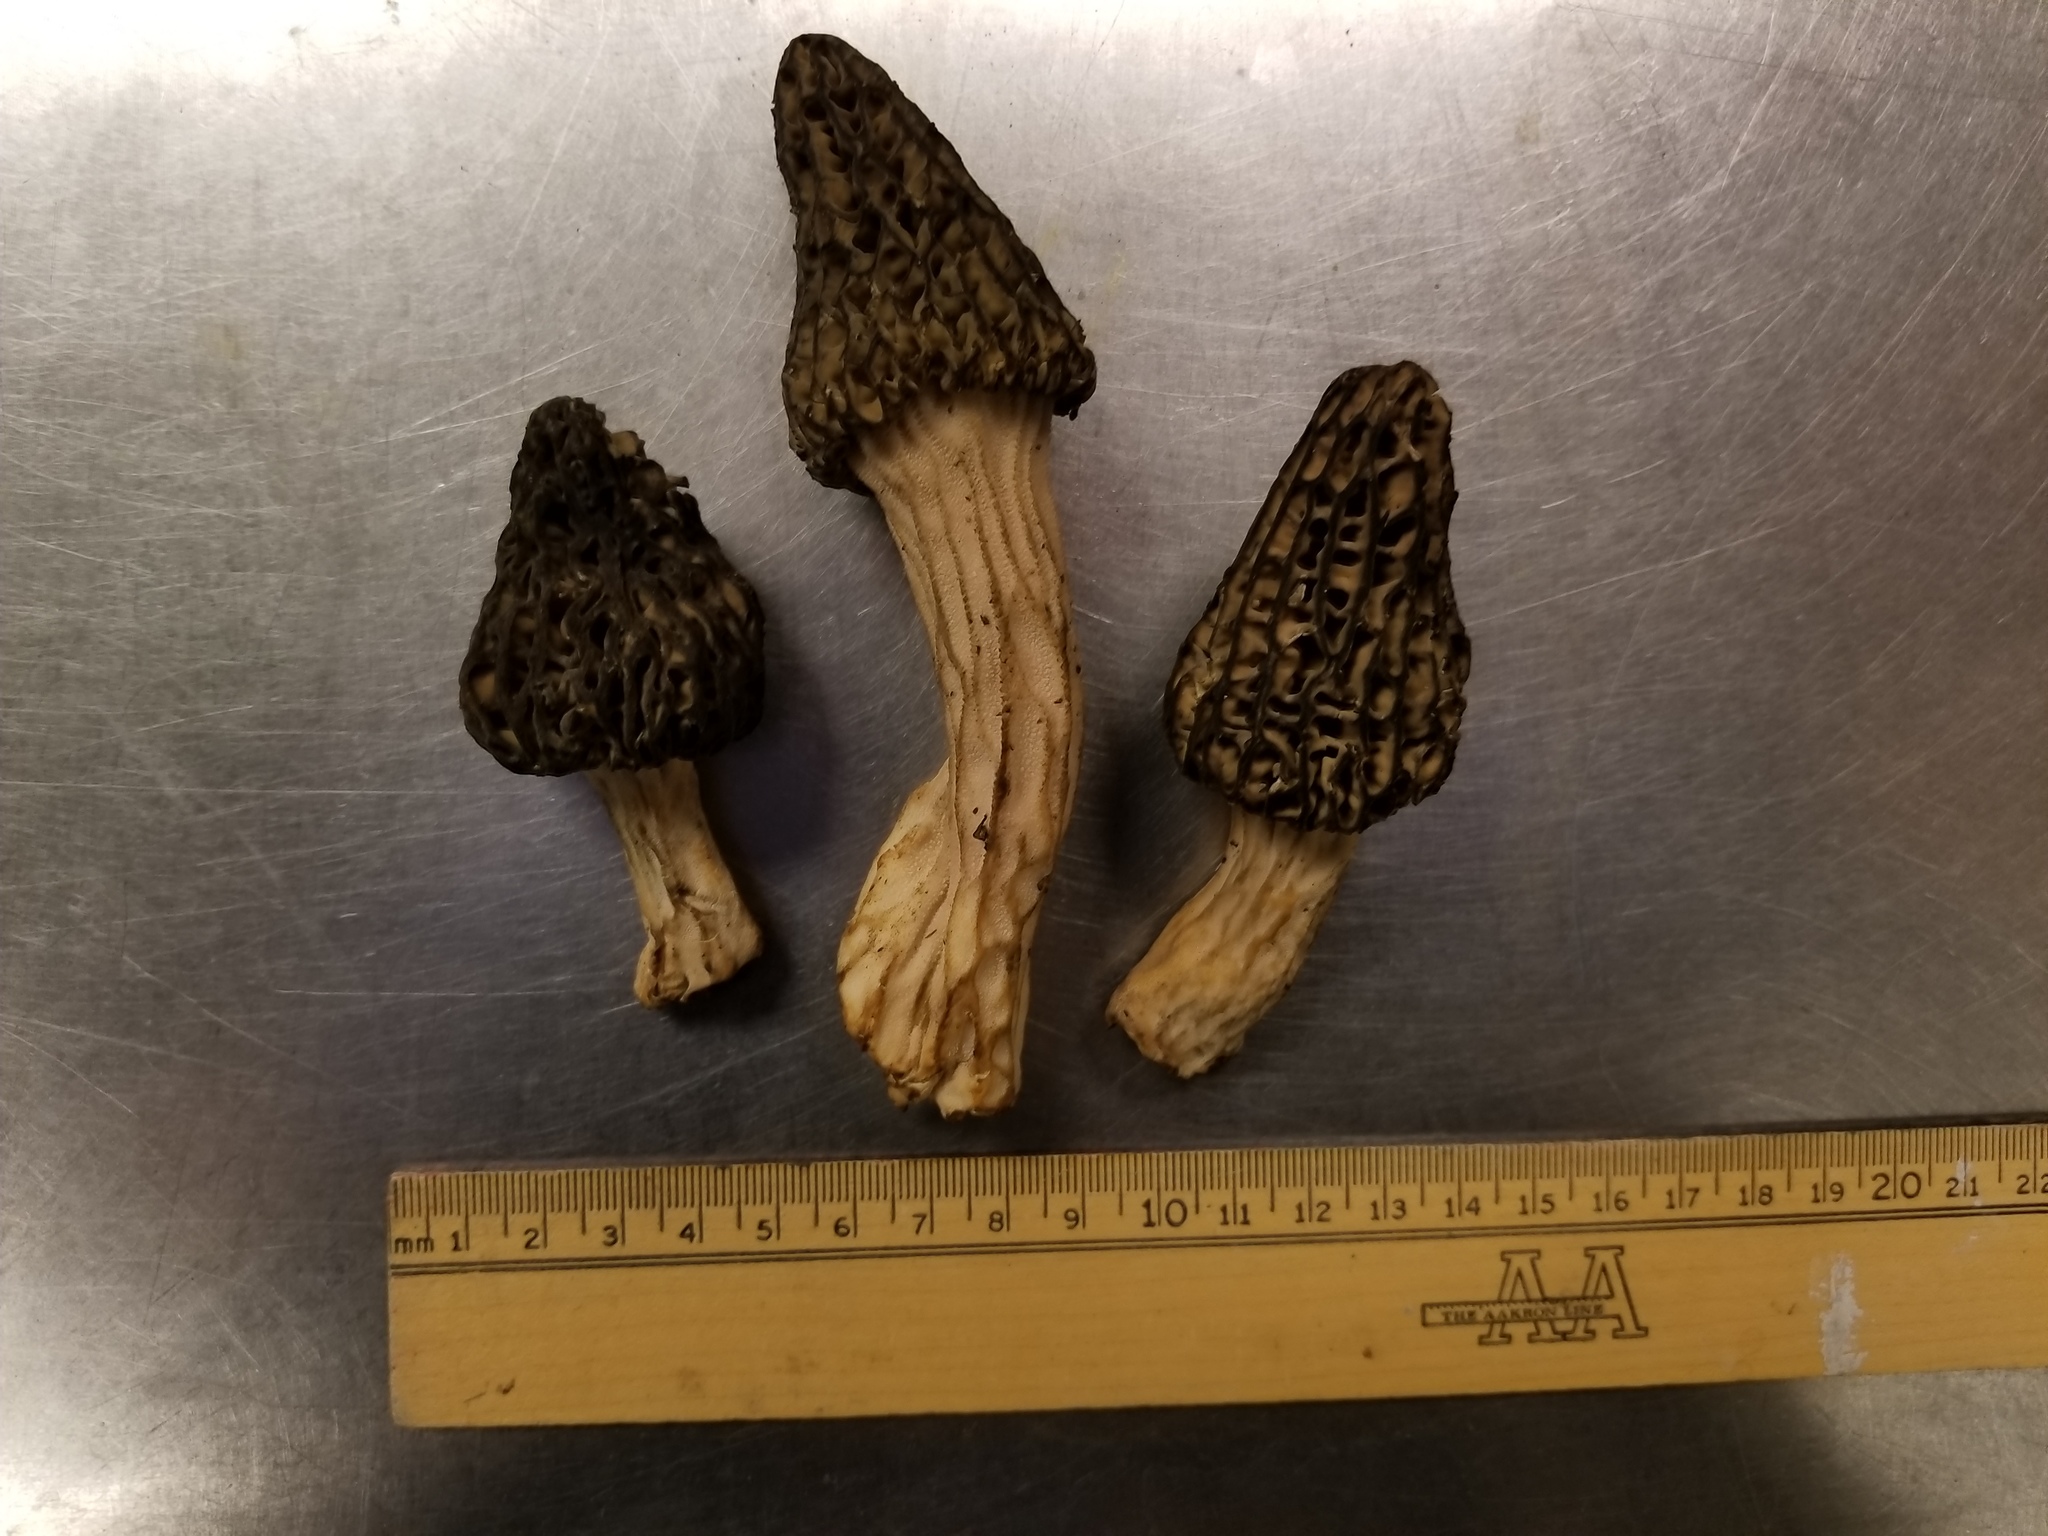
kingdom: Fungi
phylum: Ascomycota
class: Pezizomycetes
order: Pezizales
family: Morchellaceae
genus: Morchella
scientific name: Morchella angusticeps
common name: Black morel
